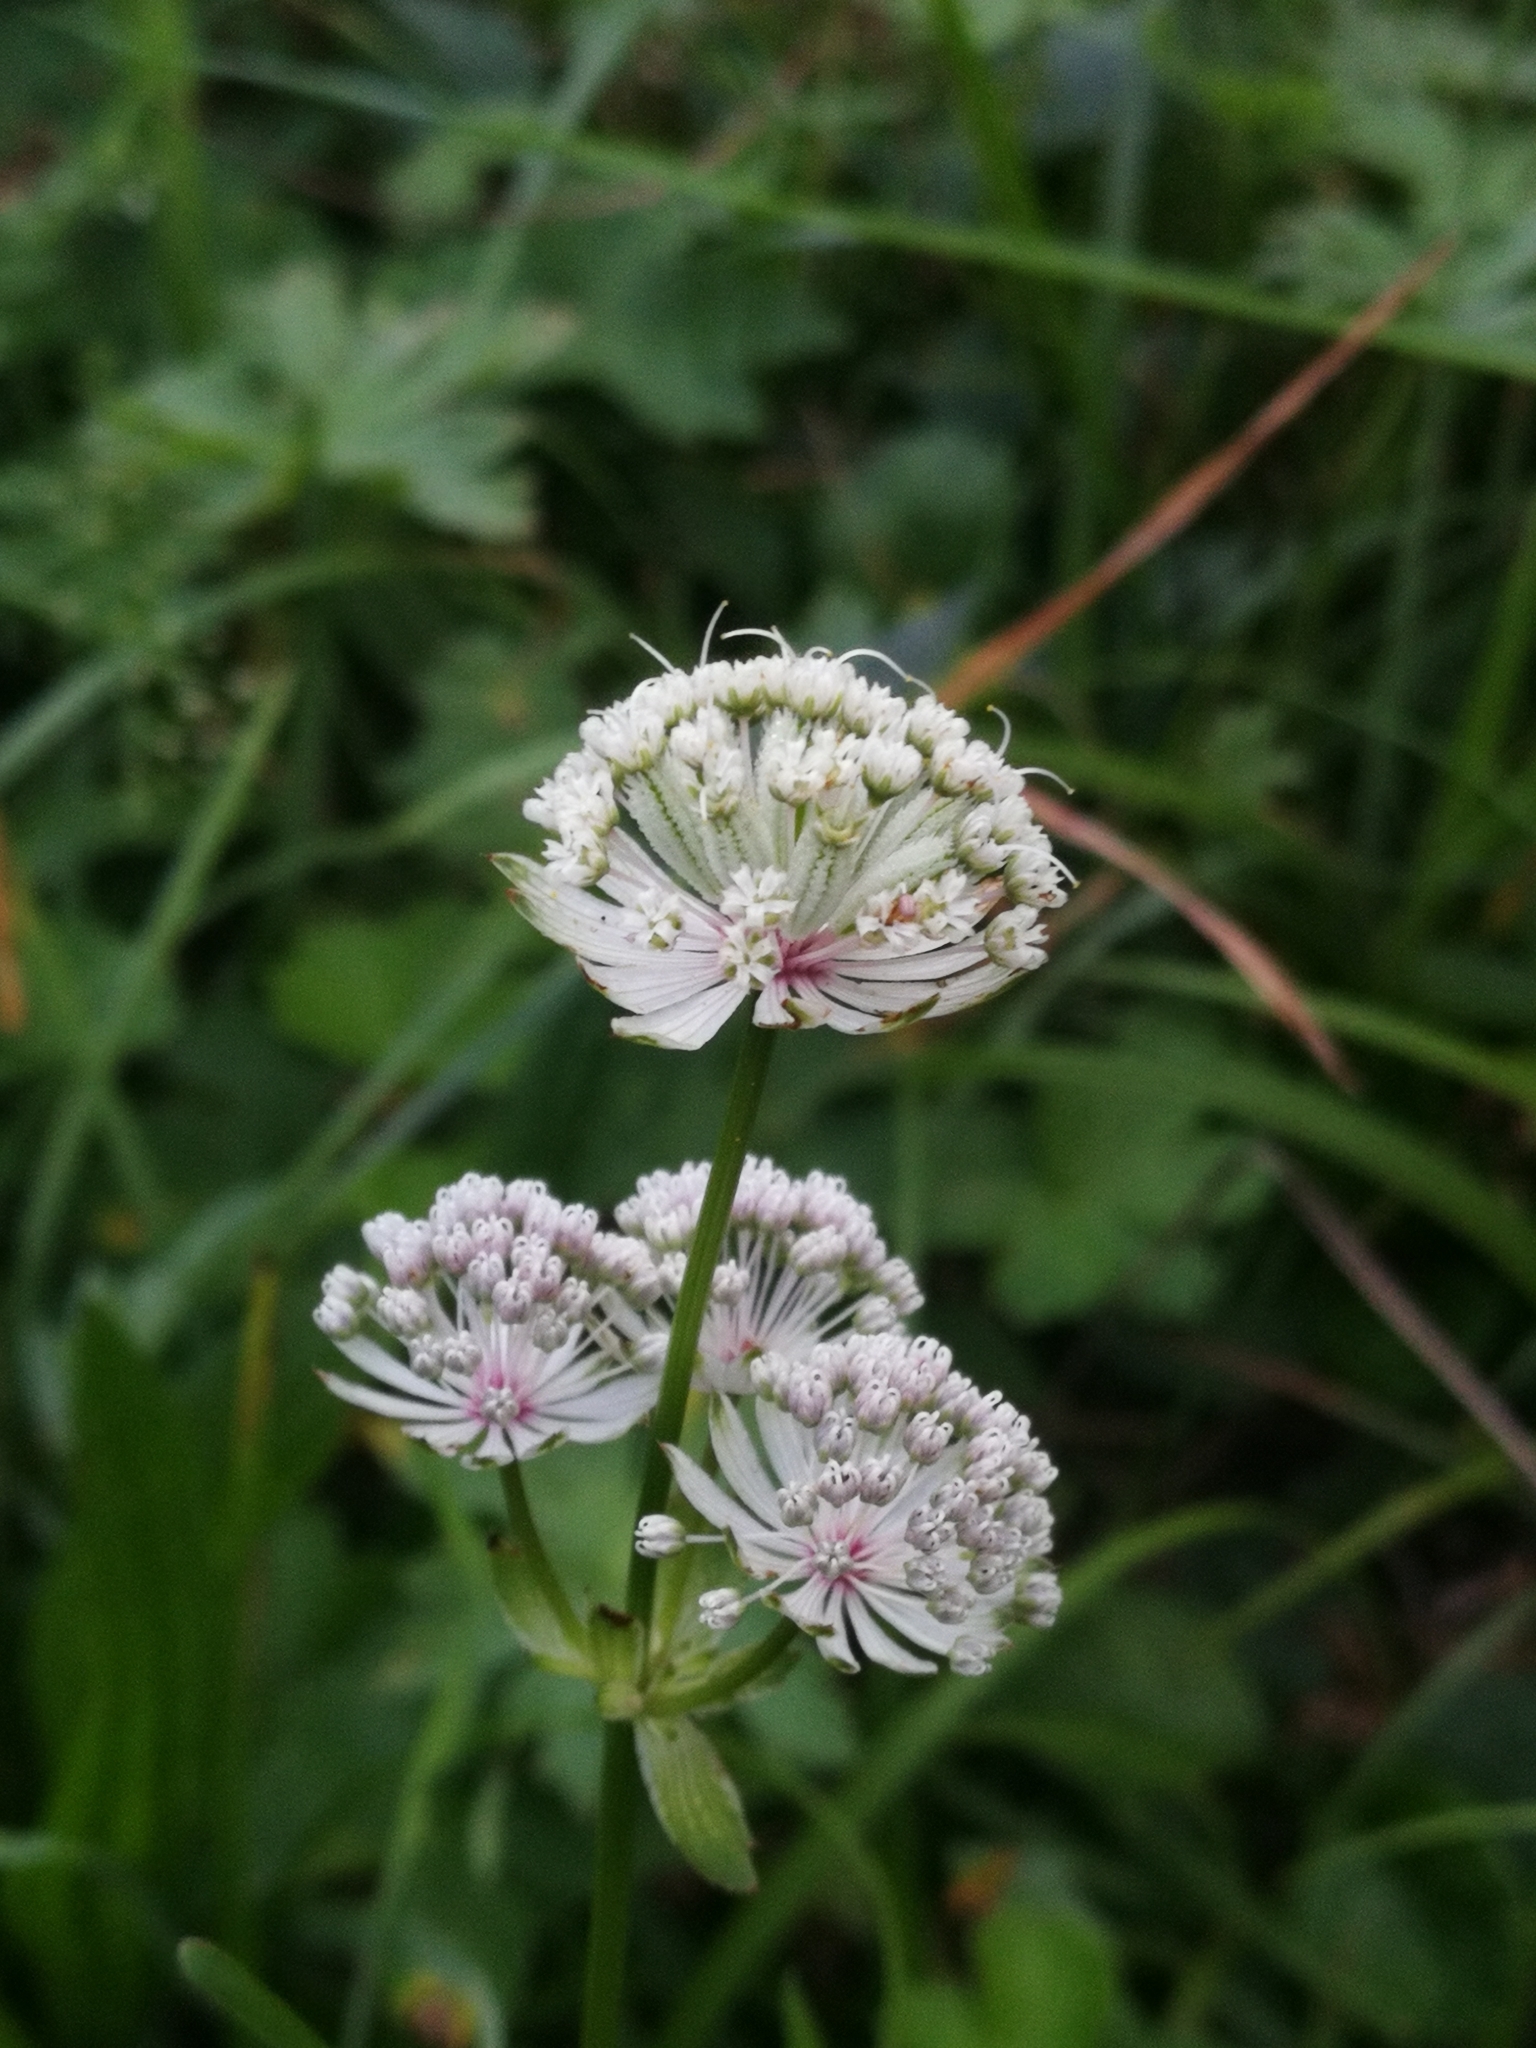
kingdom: Plantae
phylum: Tracheophyta
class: Magnoliopsida
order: Apiales
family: Apiaceae
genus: Astrantia
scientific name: Astrantia major
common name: Greater masterwort
